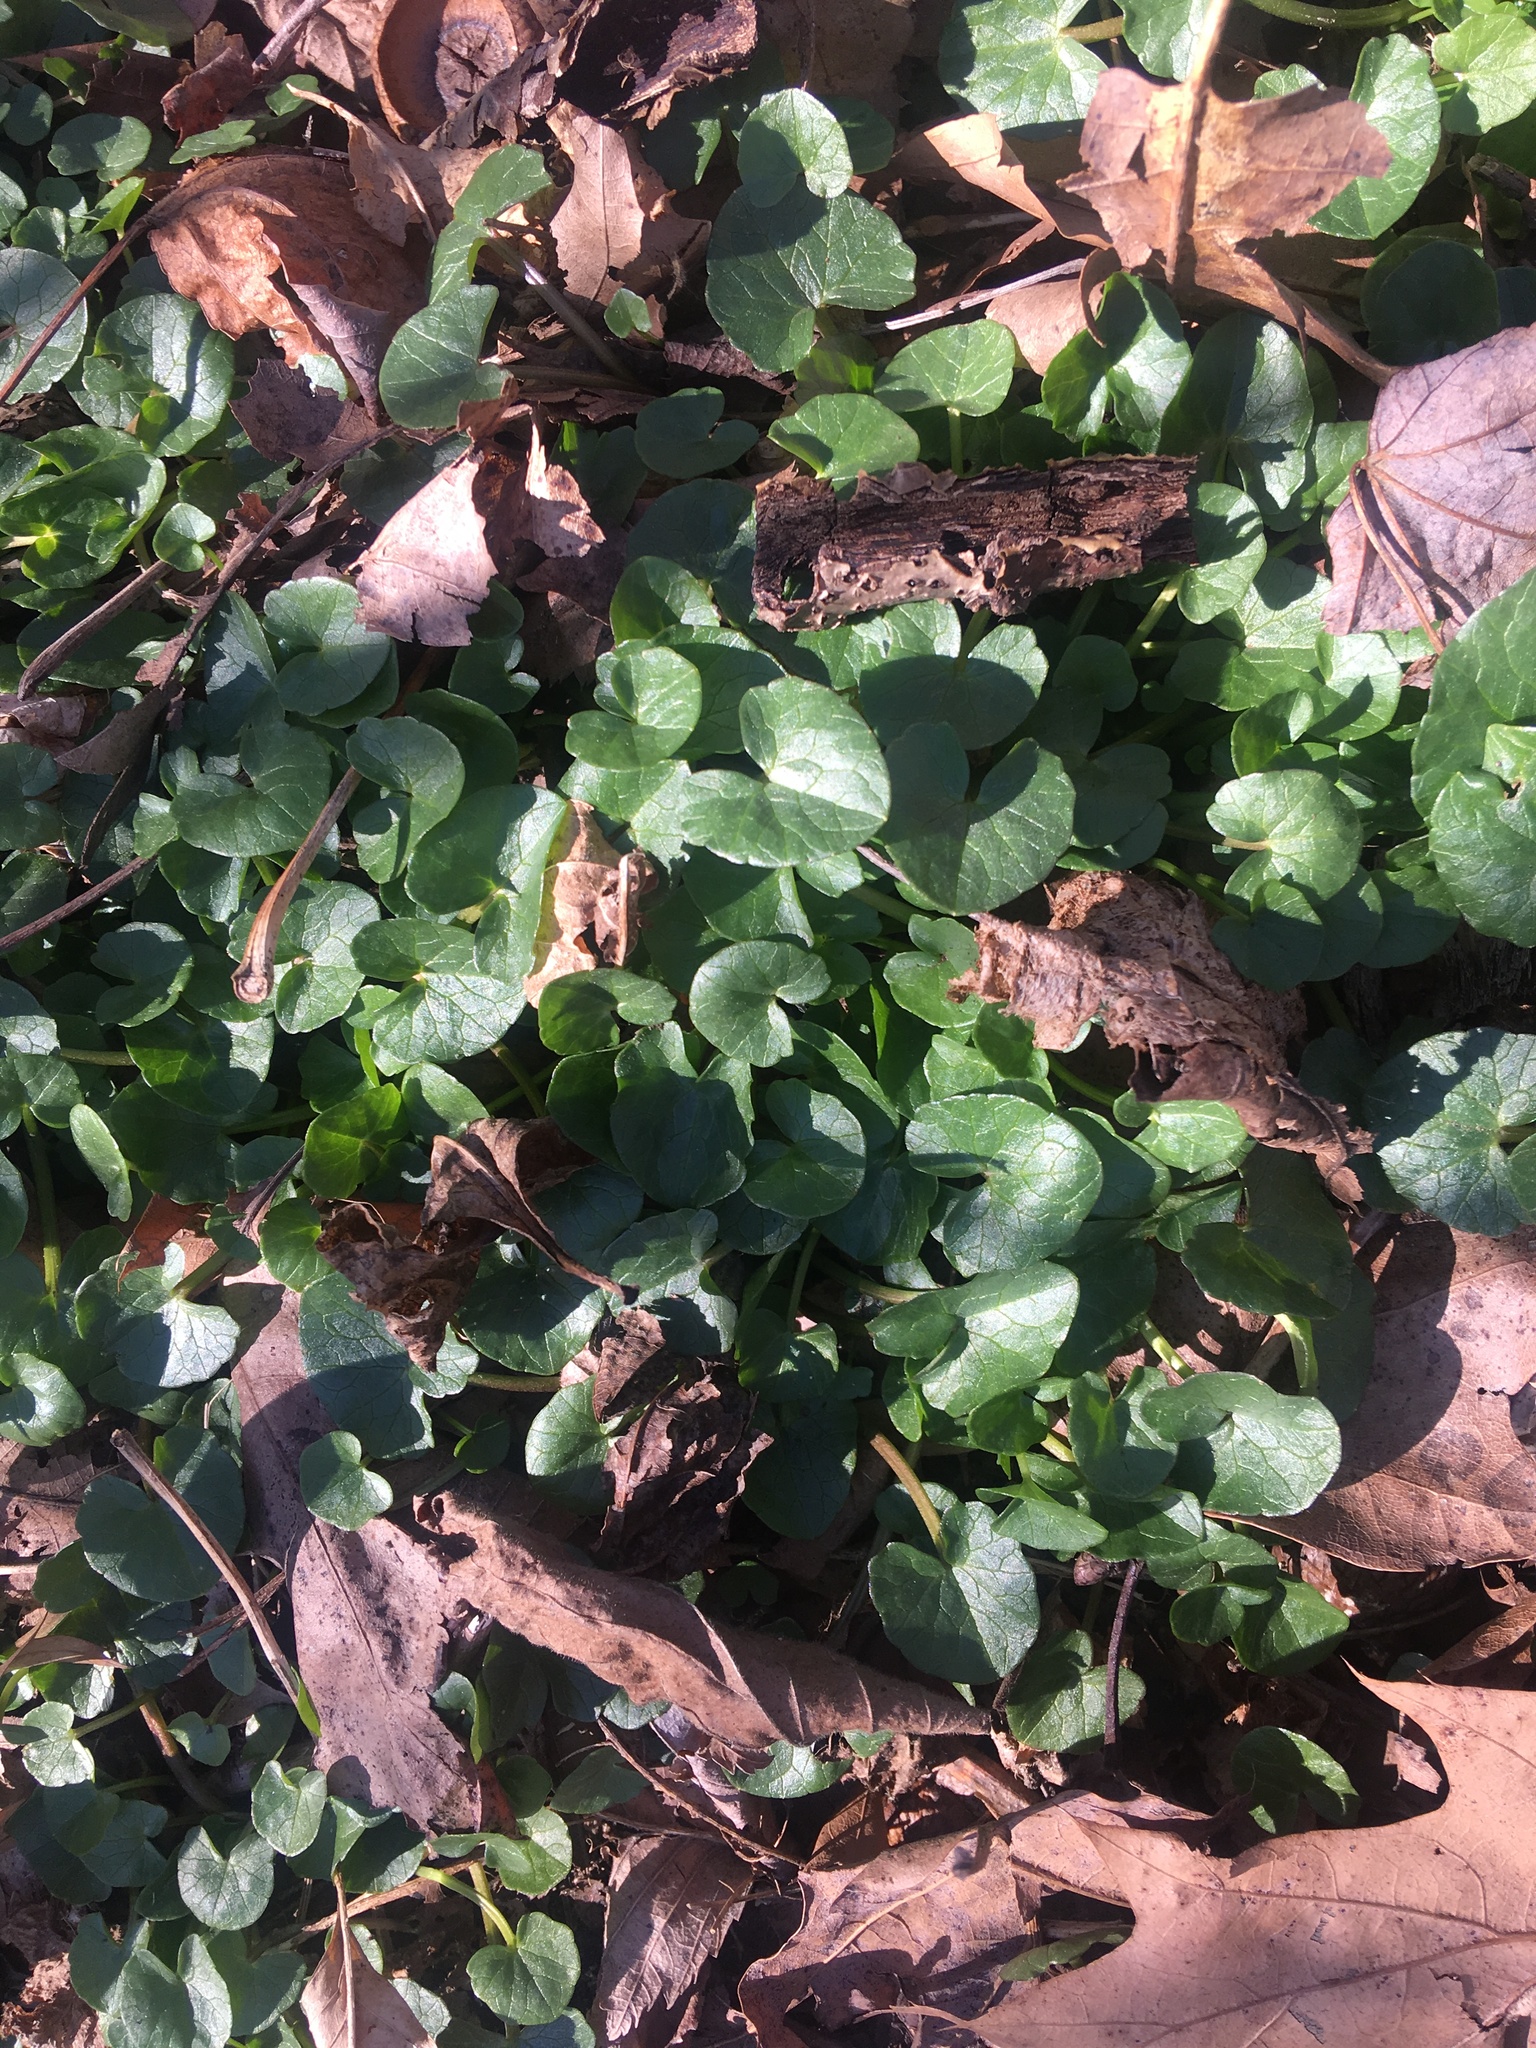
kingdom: Plantae
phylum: Tracheophyta
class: Magnoliopsida
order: Ranunculales
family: Ranunculaceae
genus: Ficaria
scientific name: Ficaria verna
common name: Lesser celandine
